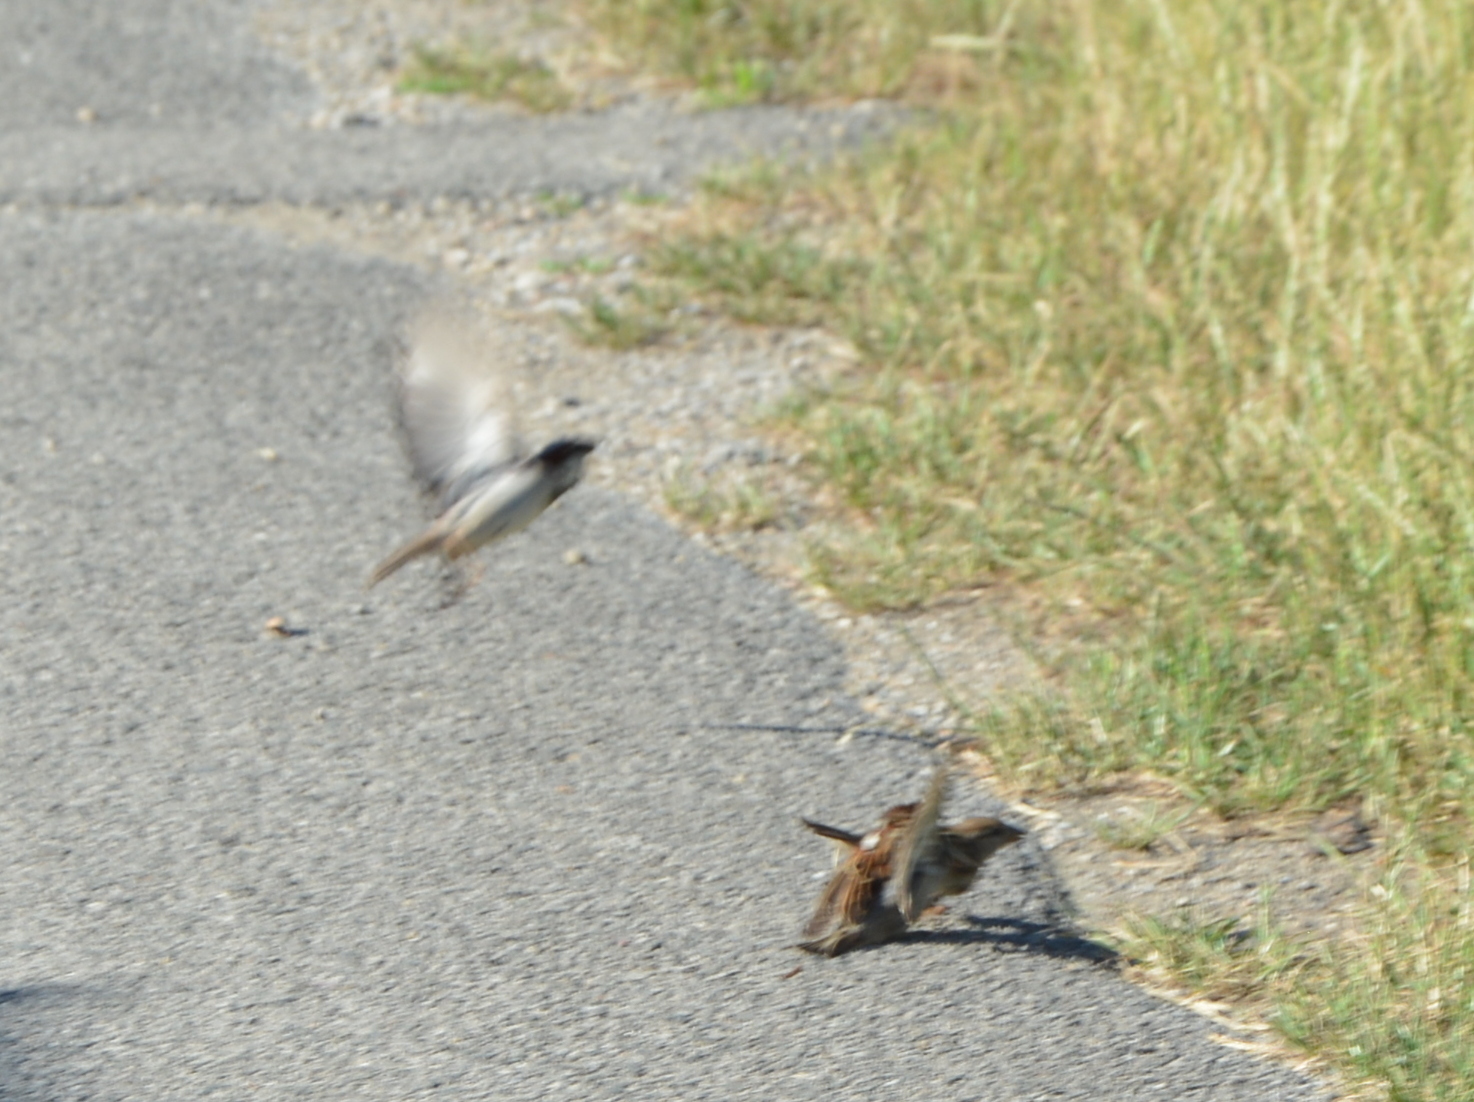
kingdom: Animalia
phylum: Chordata
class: Aves
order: Passeriformes
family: Passeridae
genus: Passer
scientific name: Passer domesticus
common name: House sparrow
